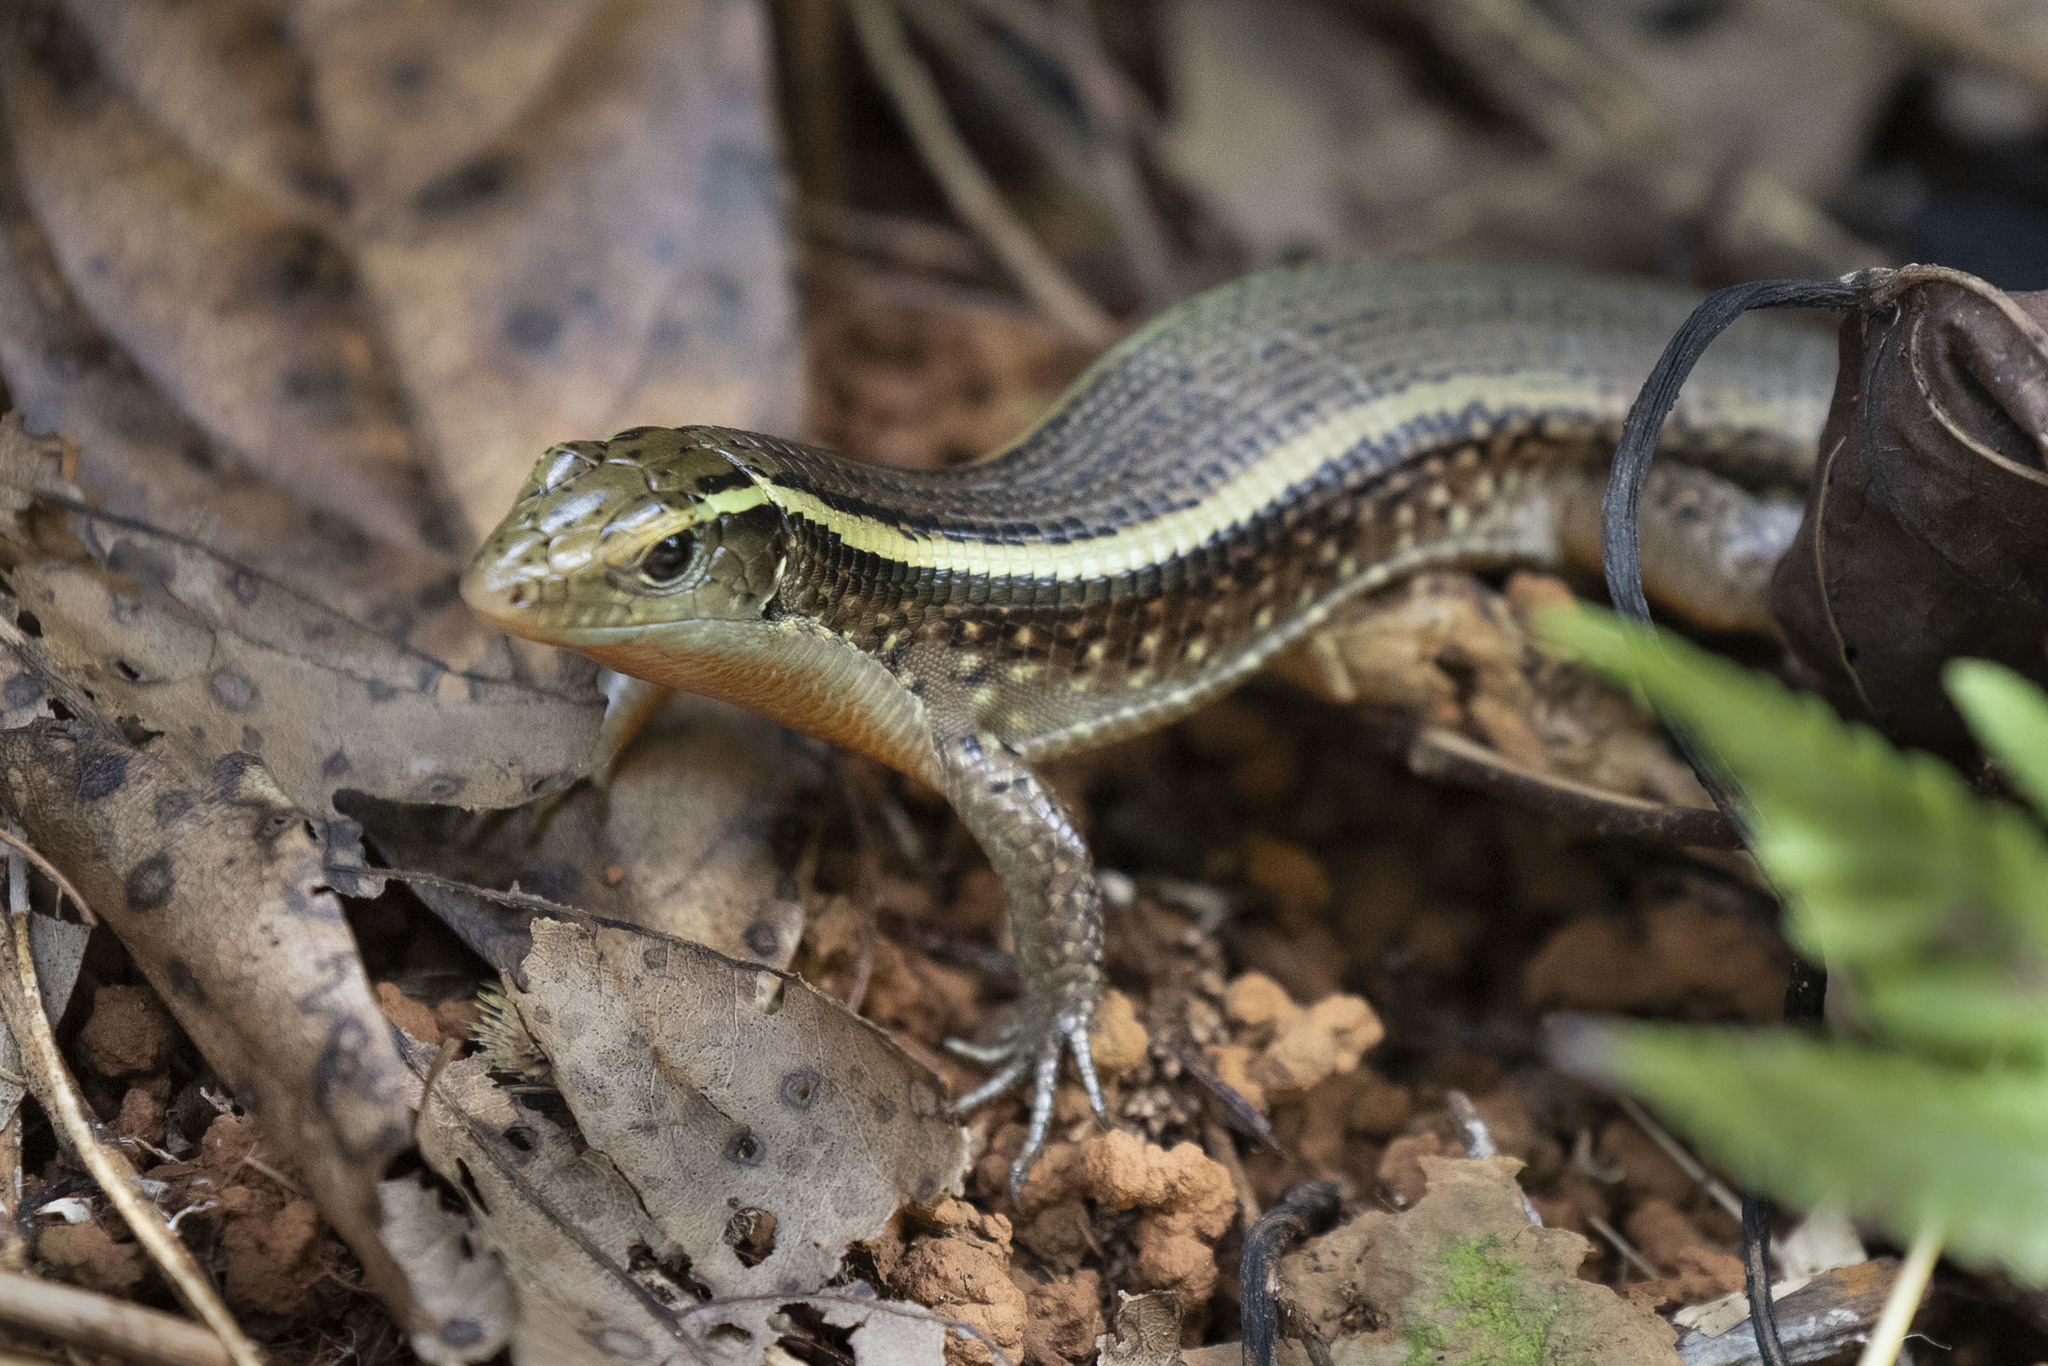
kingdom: Animalia
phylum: Chordata
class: Squamata
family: Gerrhosauridae
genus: Zonosaurus
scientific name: Zonosaurus madagascariensis
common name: Madagascar girdled lizard
